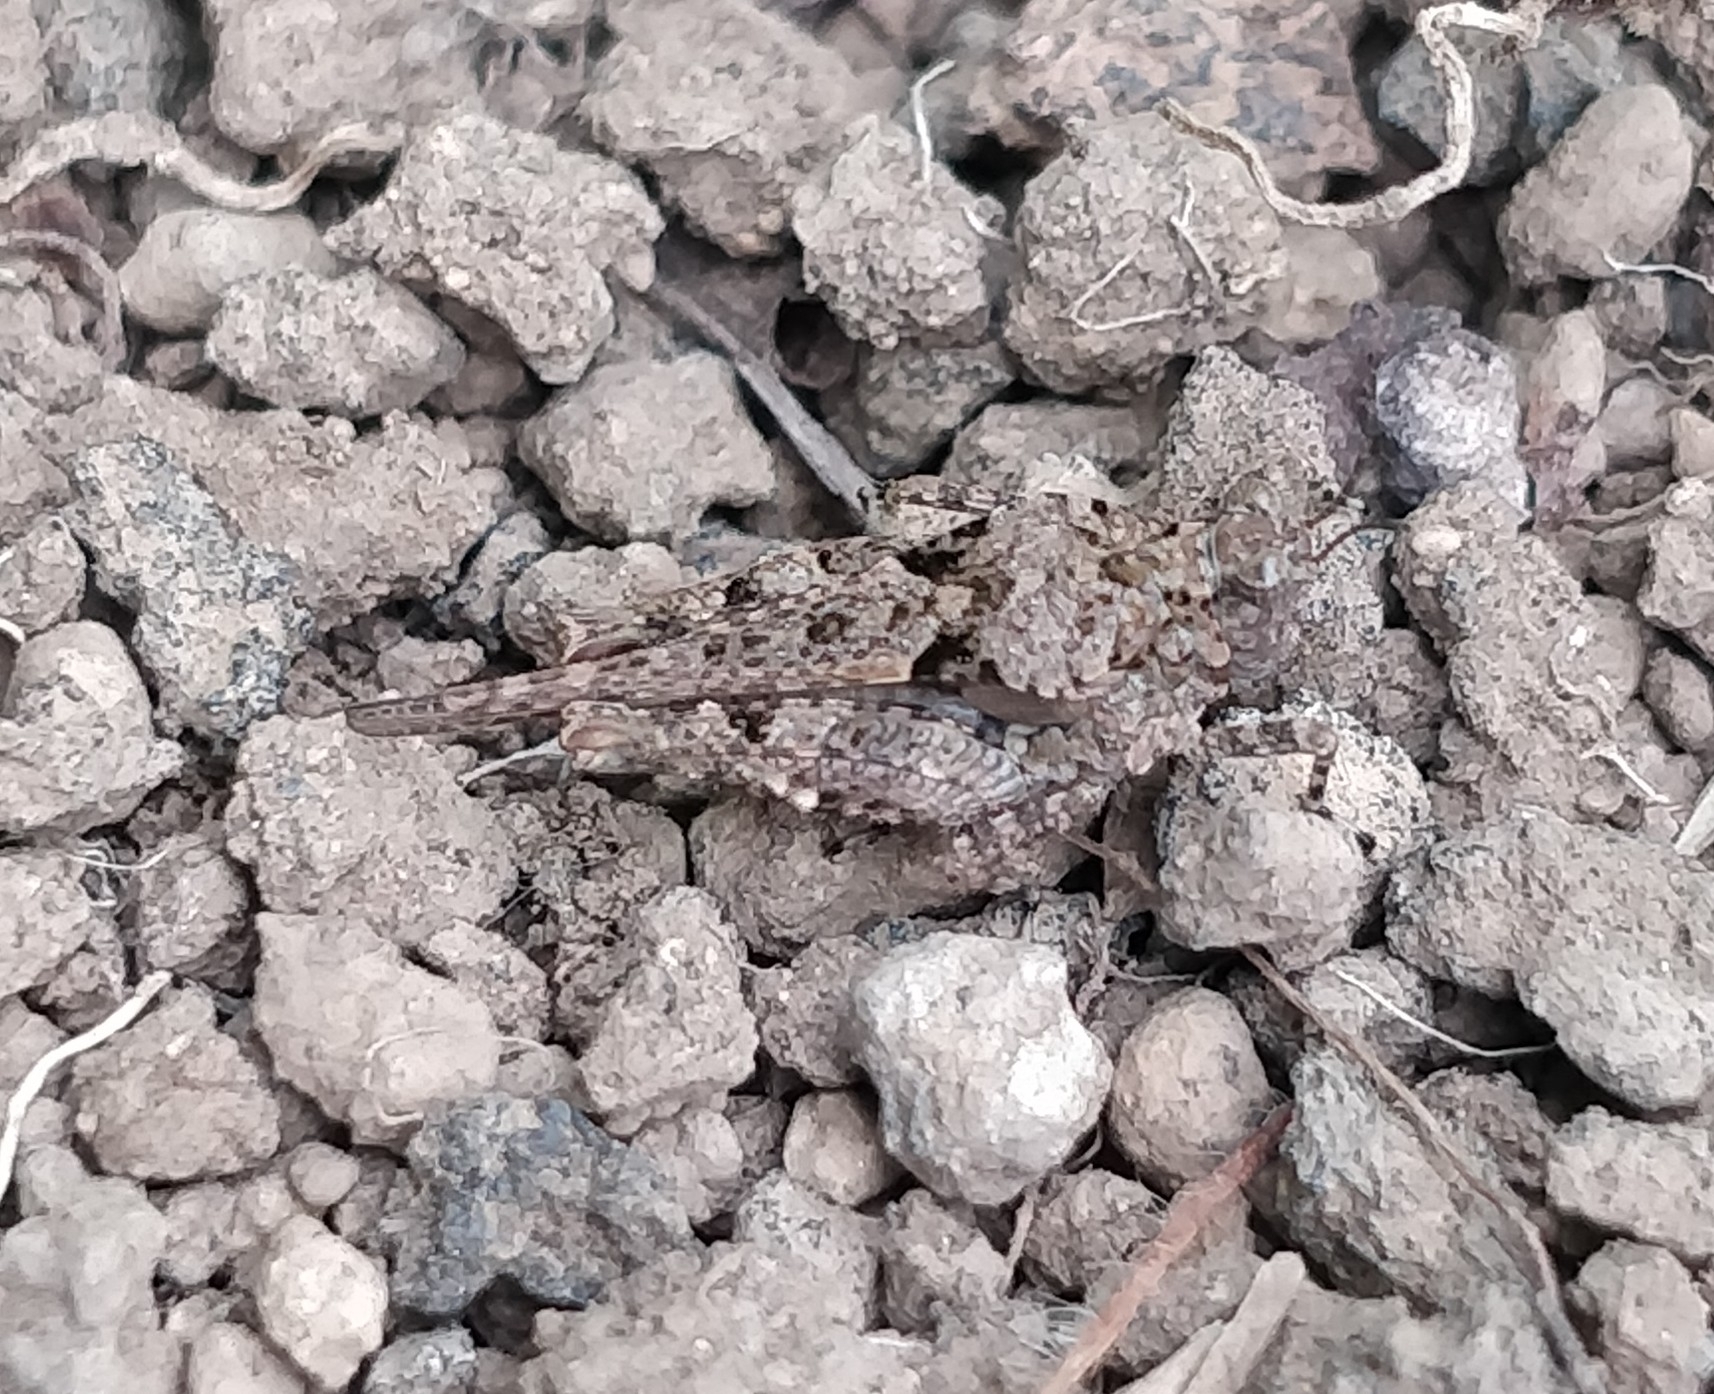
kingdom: Animalia
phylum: Arthropoda
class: Insecta
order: Orthoptera
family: Tetrigidae
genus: Paratettix
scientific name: Paratettix meridionalis
